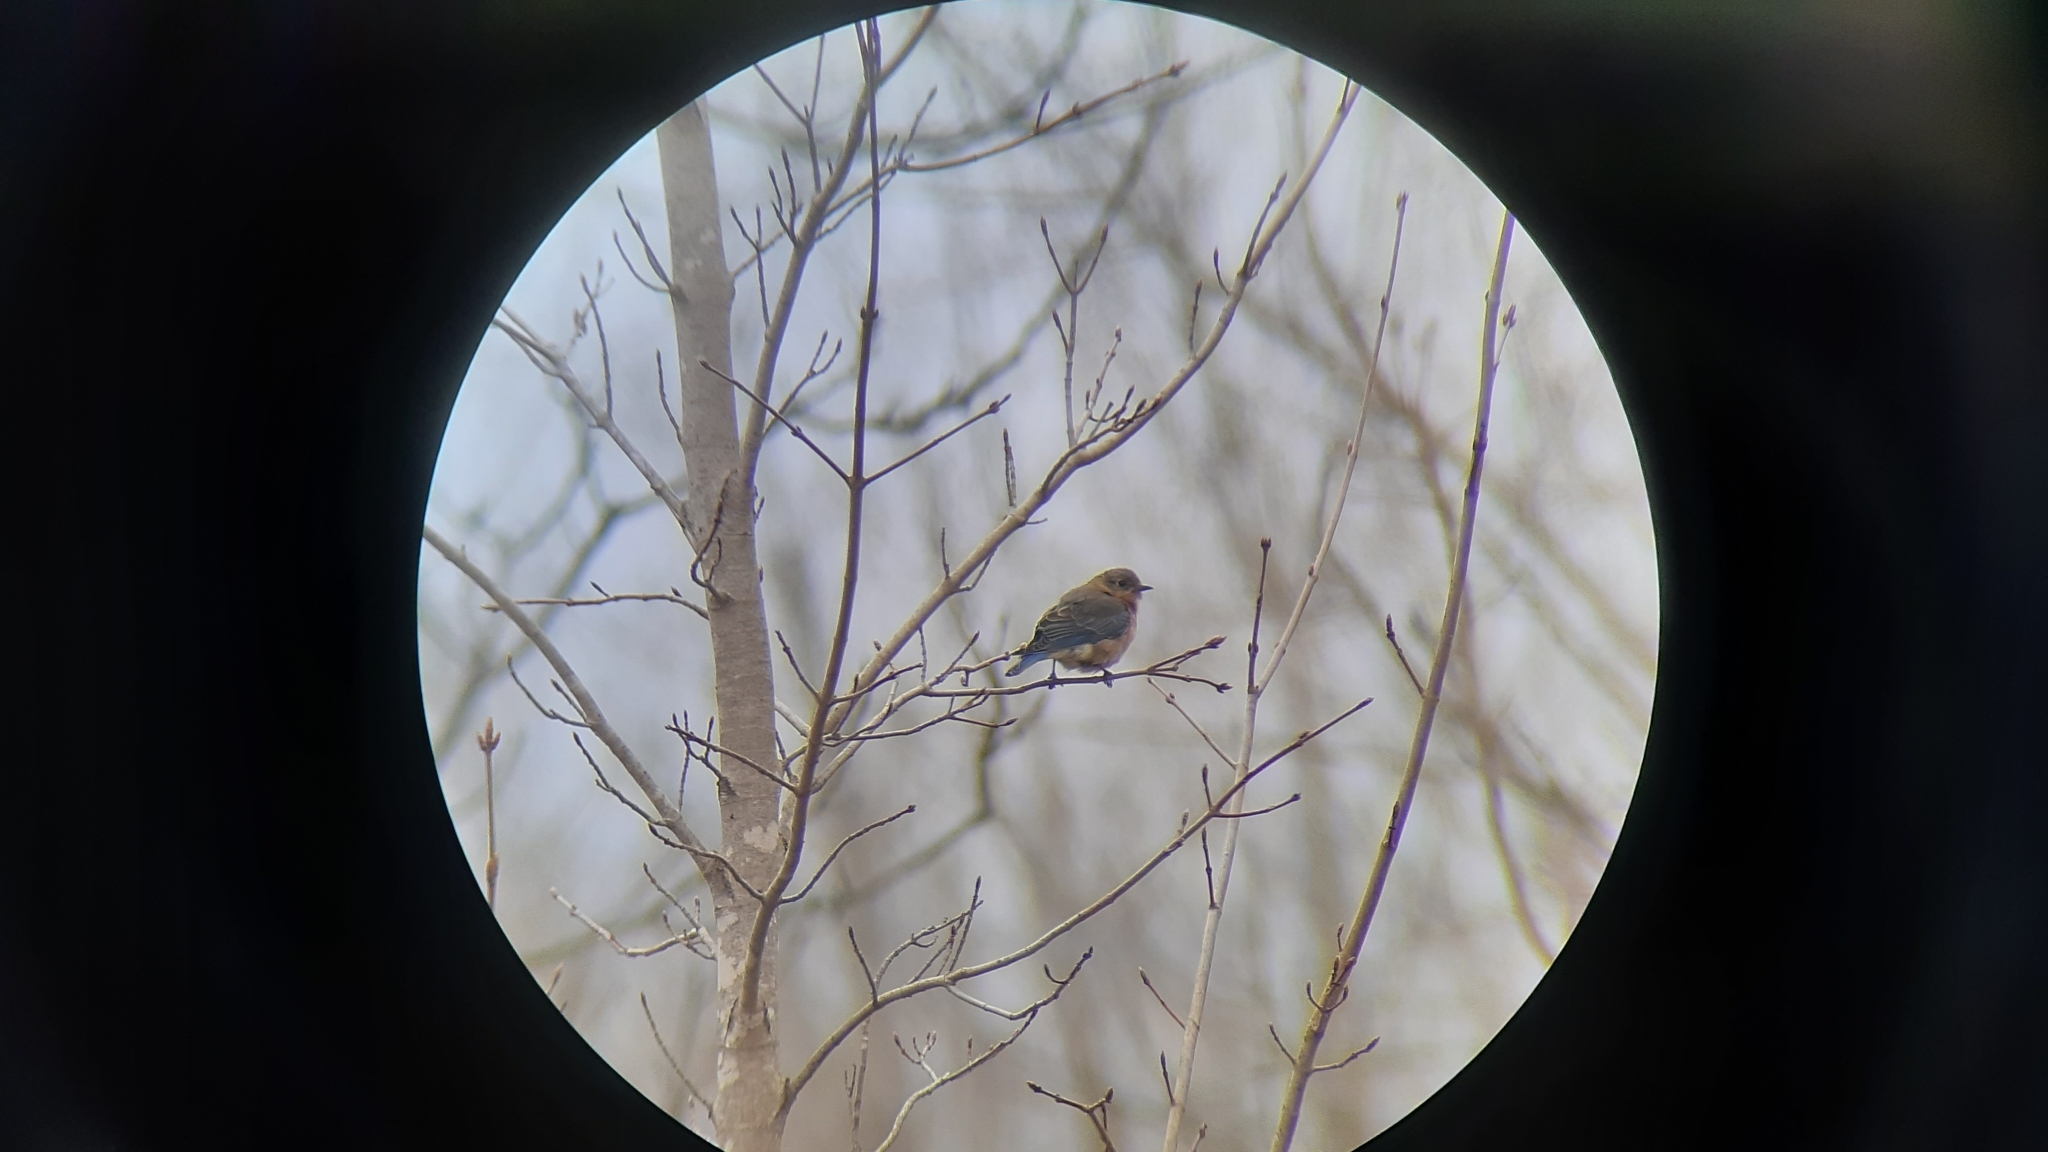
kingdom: Animalia
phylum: Chordata
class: Aves
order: Passeriformes
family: Turdidae
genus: Sialia
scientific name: Sialia sialis
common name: Eastern bluebird
